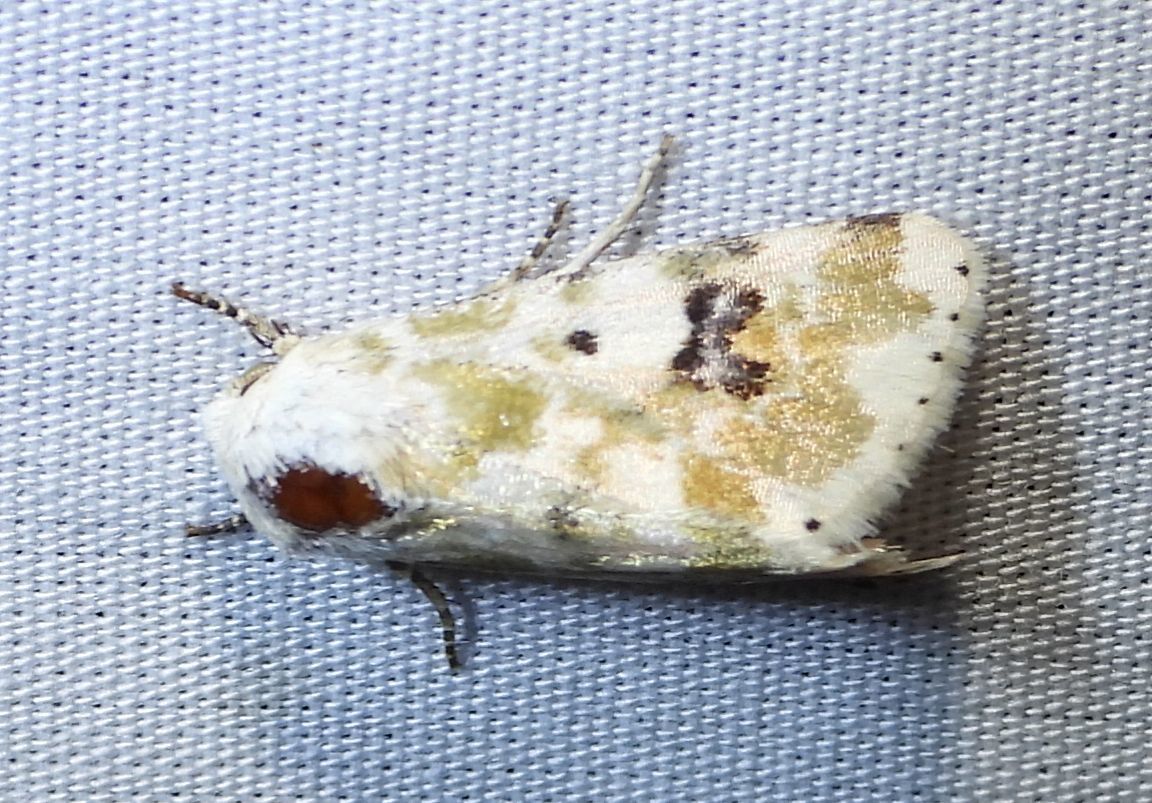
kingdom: Animalia
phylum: Arthropoda
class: Insecta
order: Lepidoptera
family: Noctuidae
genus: Schinia
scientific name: Schinia nundina
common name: Goldenrod flower moth
